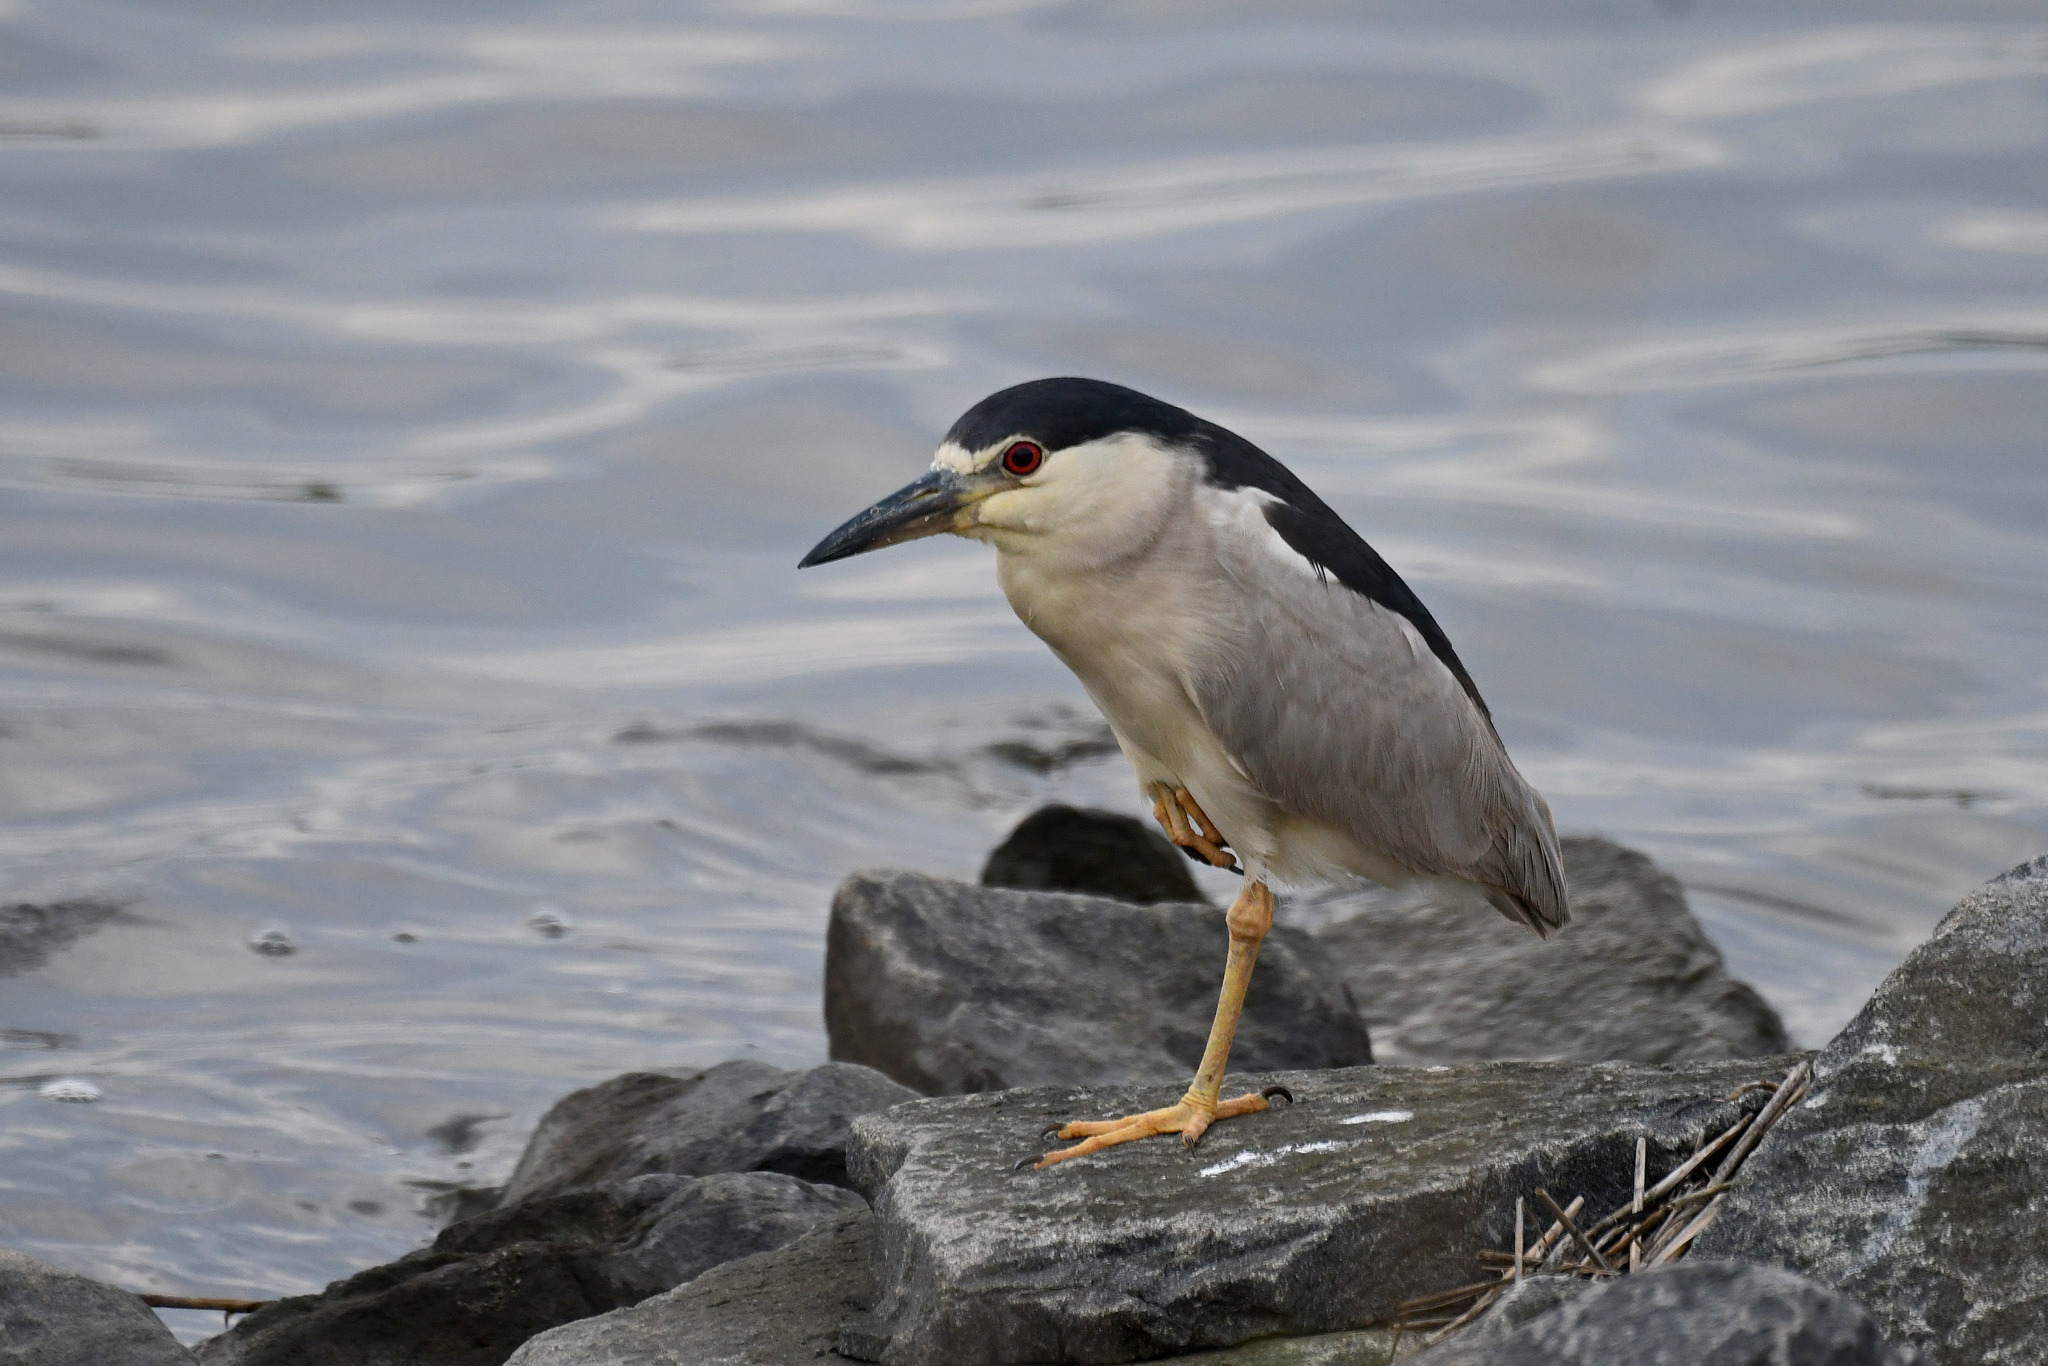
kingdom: Animalia
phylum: Chordata
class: Aves
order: Pelecaniformes
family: Ardeidae
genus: Nycticorax
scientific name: Nycticorax nycticorax
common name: Black-crowned night heron
